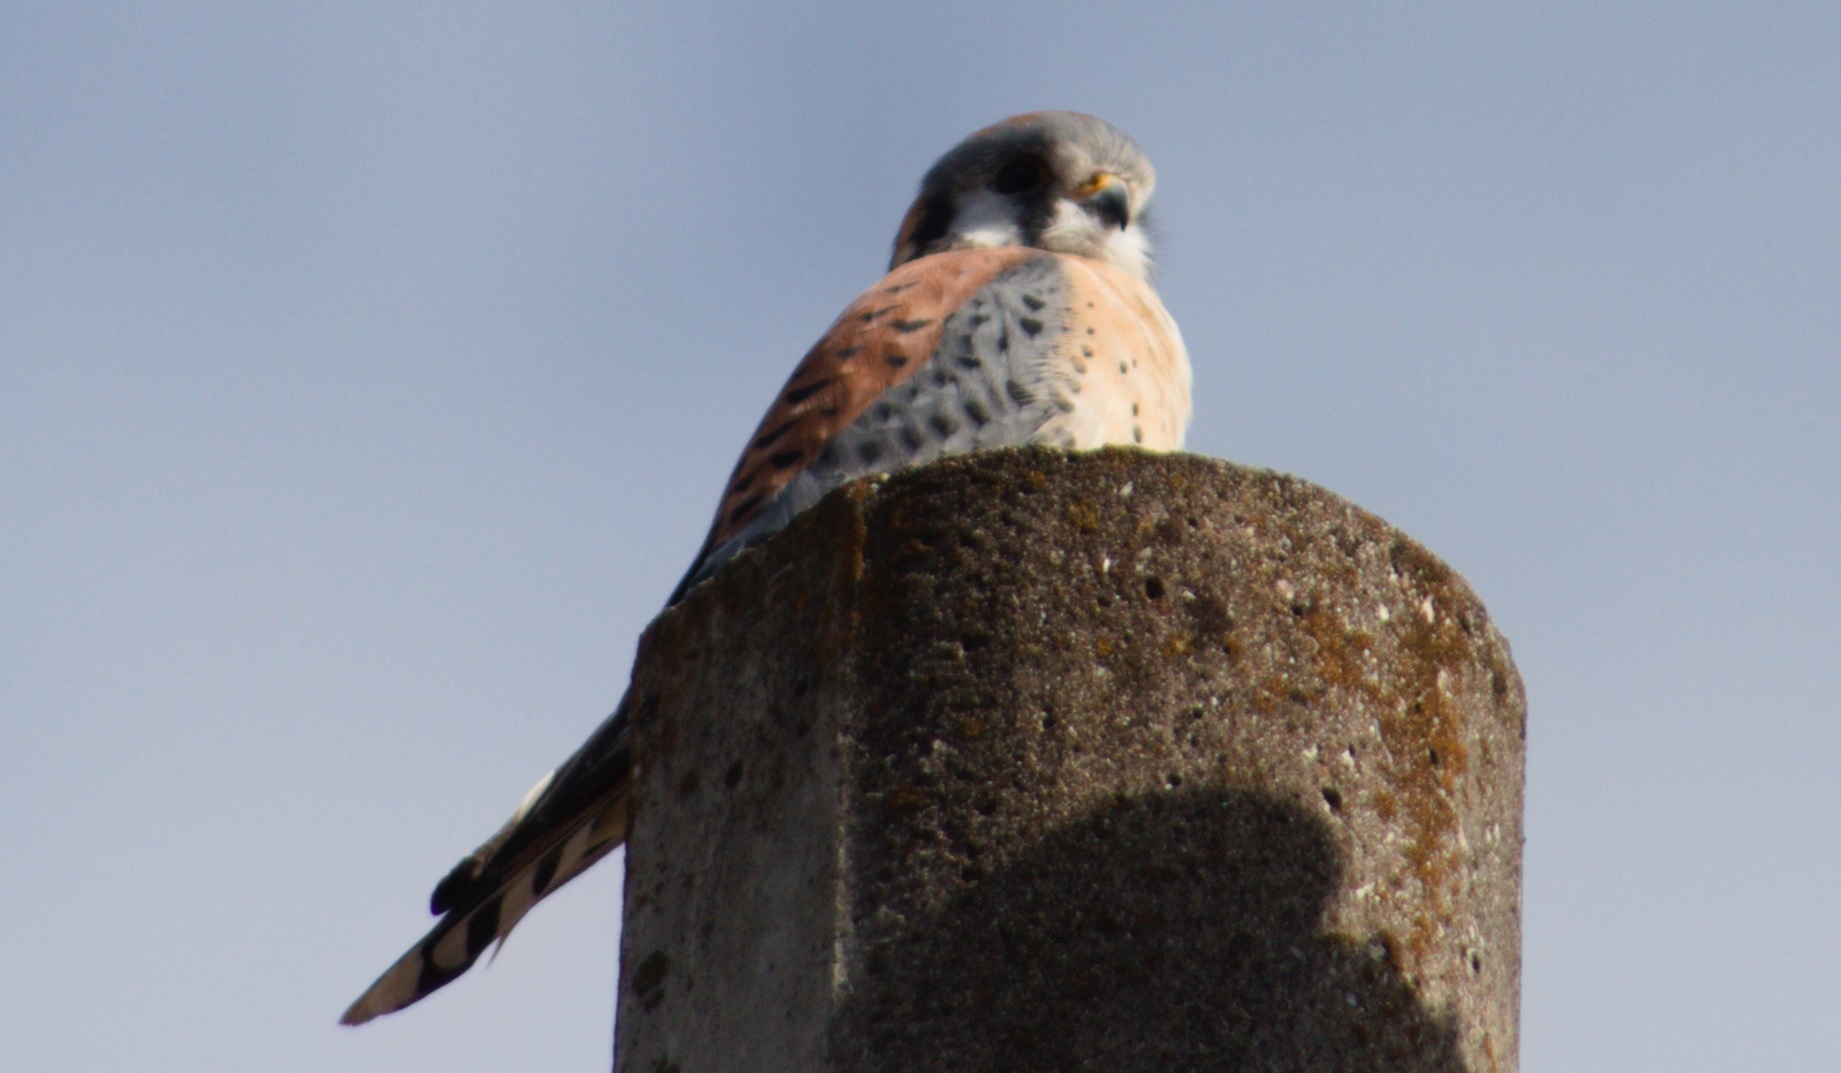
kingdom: Animalia
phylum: Chordata
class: Aves
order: Falconiformes
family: Falconidae
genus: Falco
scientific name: Falco sparverius
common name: American kestrel
